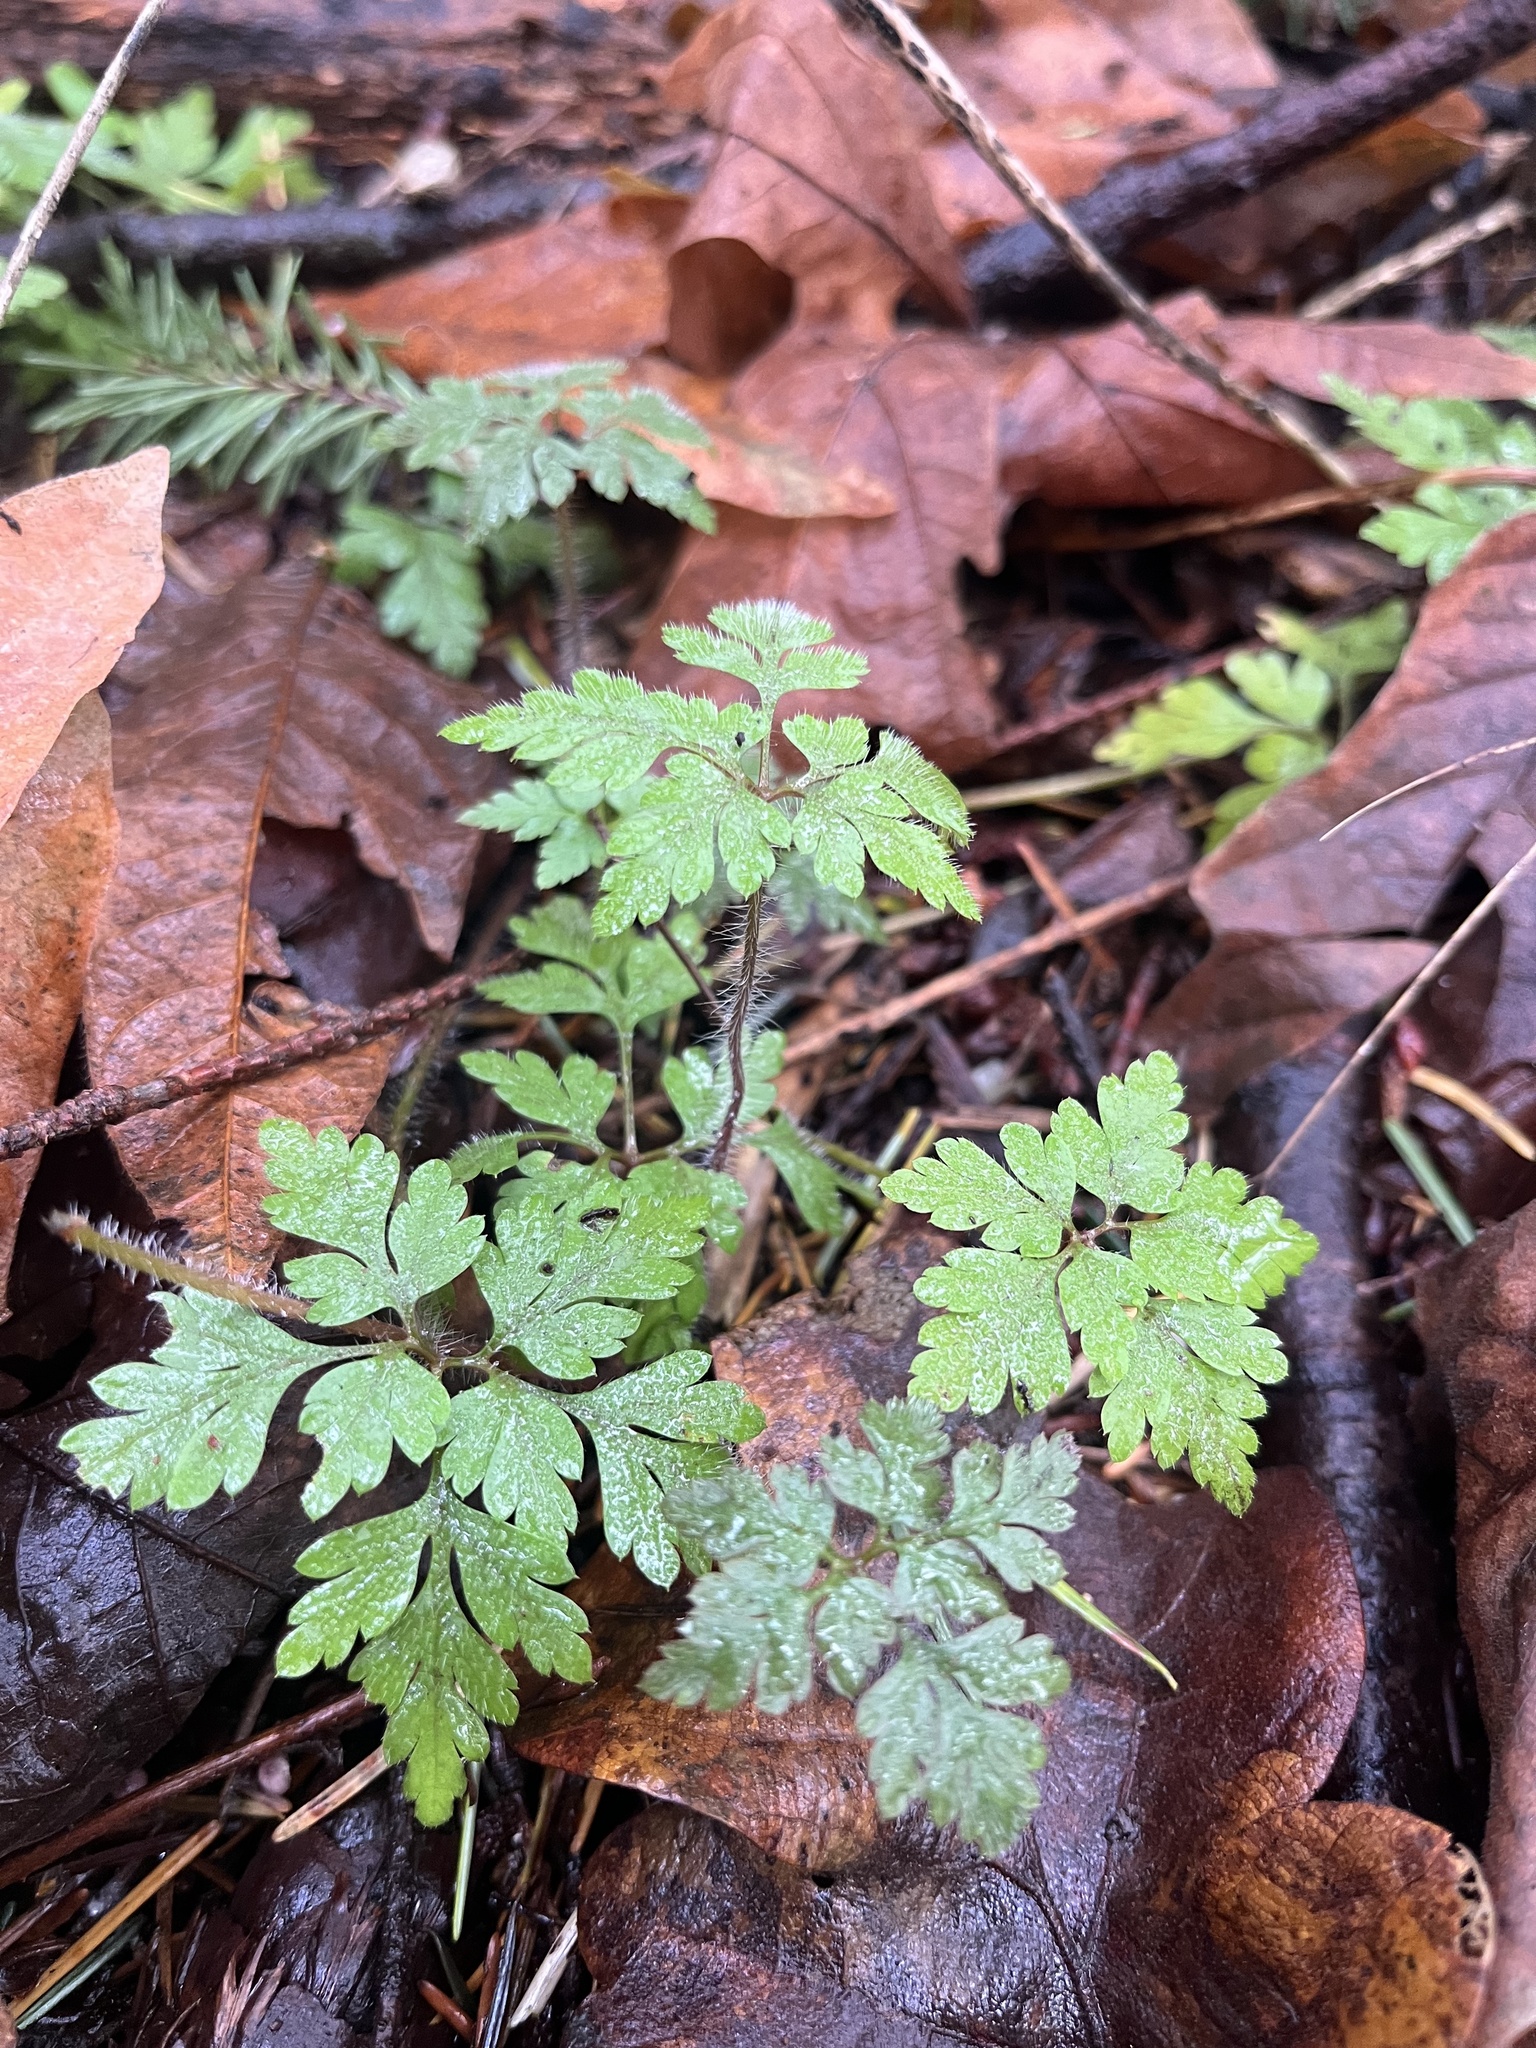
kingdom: Plantae
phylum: Tracheophyta
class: Magnoliopsida
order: Geraniales
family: Geraniaceae
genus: Geranium
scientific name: Geranium robertianum
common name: Herb-robert
